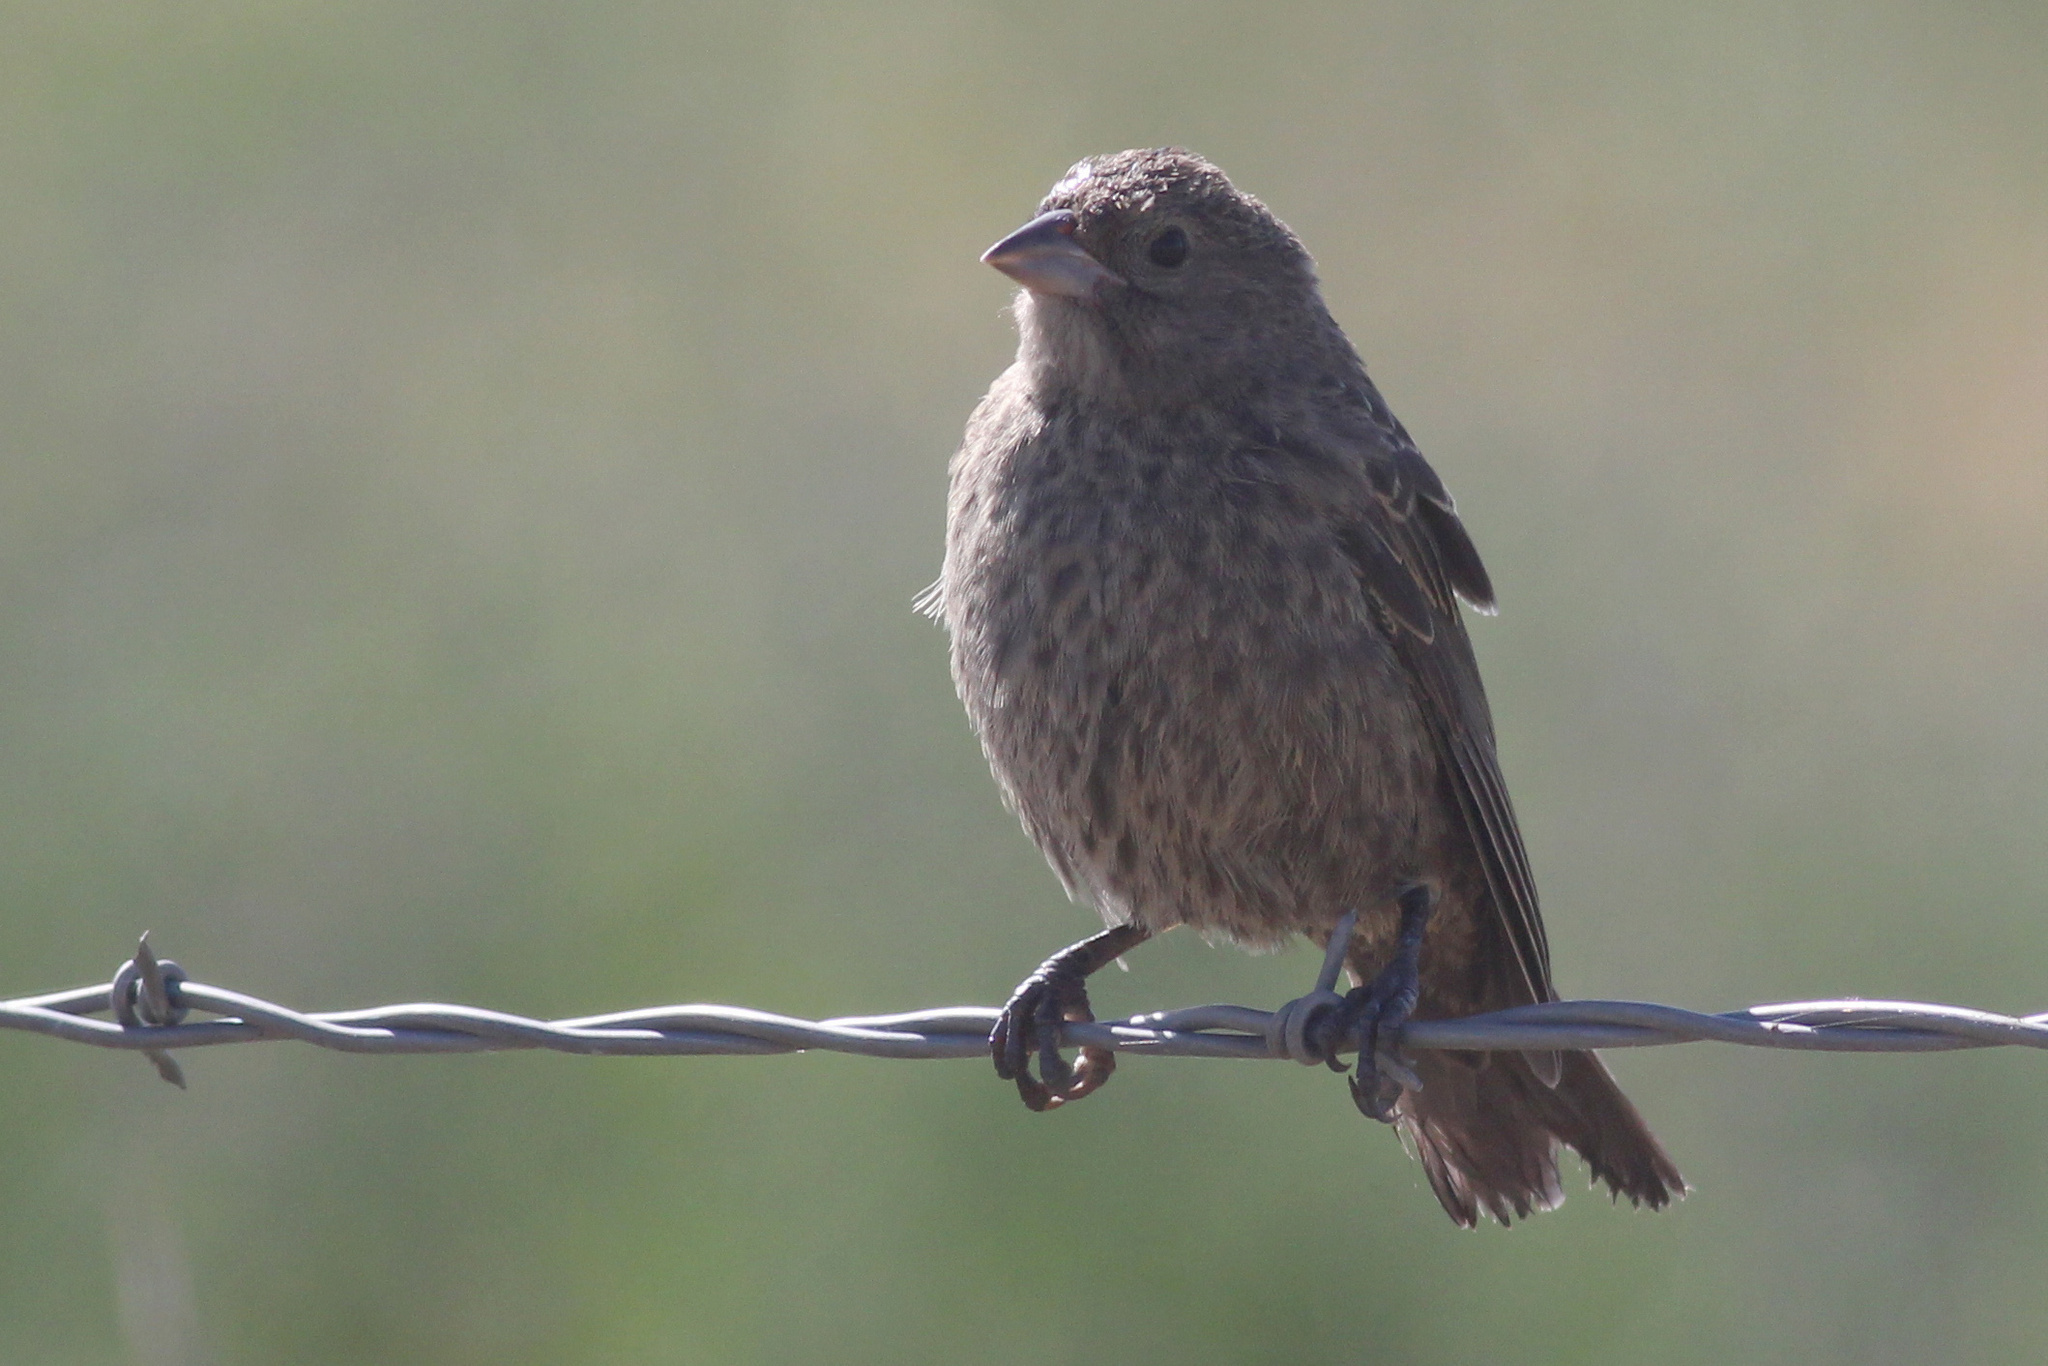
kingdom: Animalia
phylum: Chordata
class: Aves
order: Passeriformes
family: Icteridae
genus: Molothrus
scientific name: Molothrus ater
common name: Brown-headed cowbird
